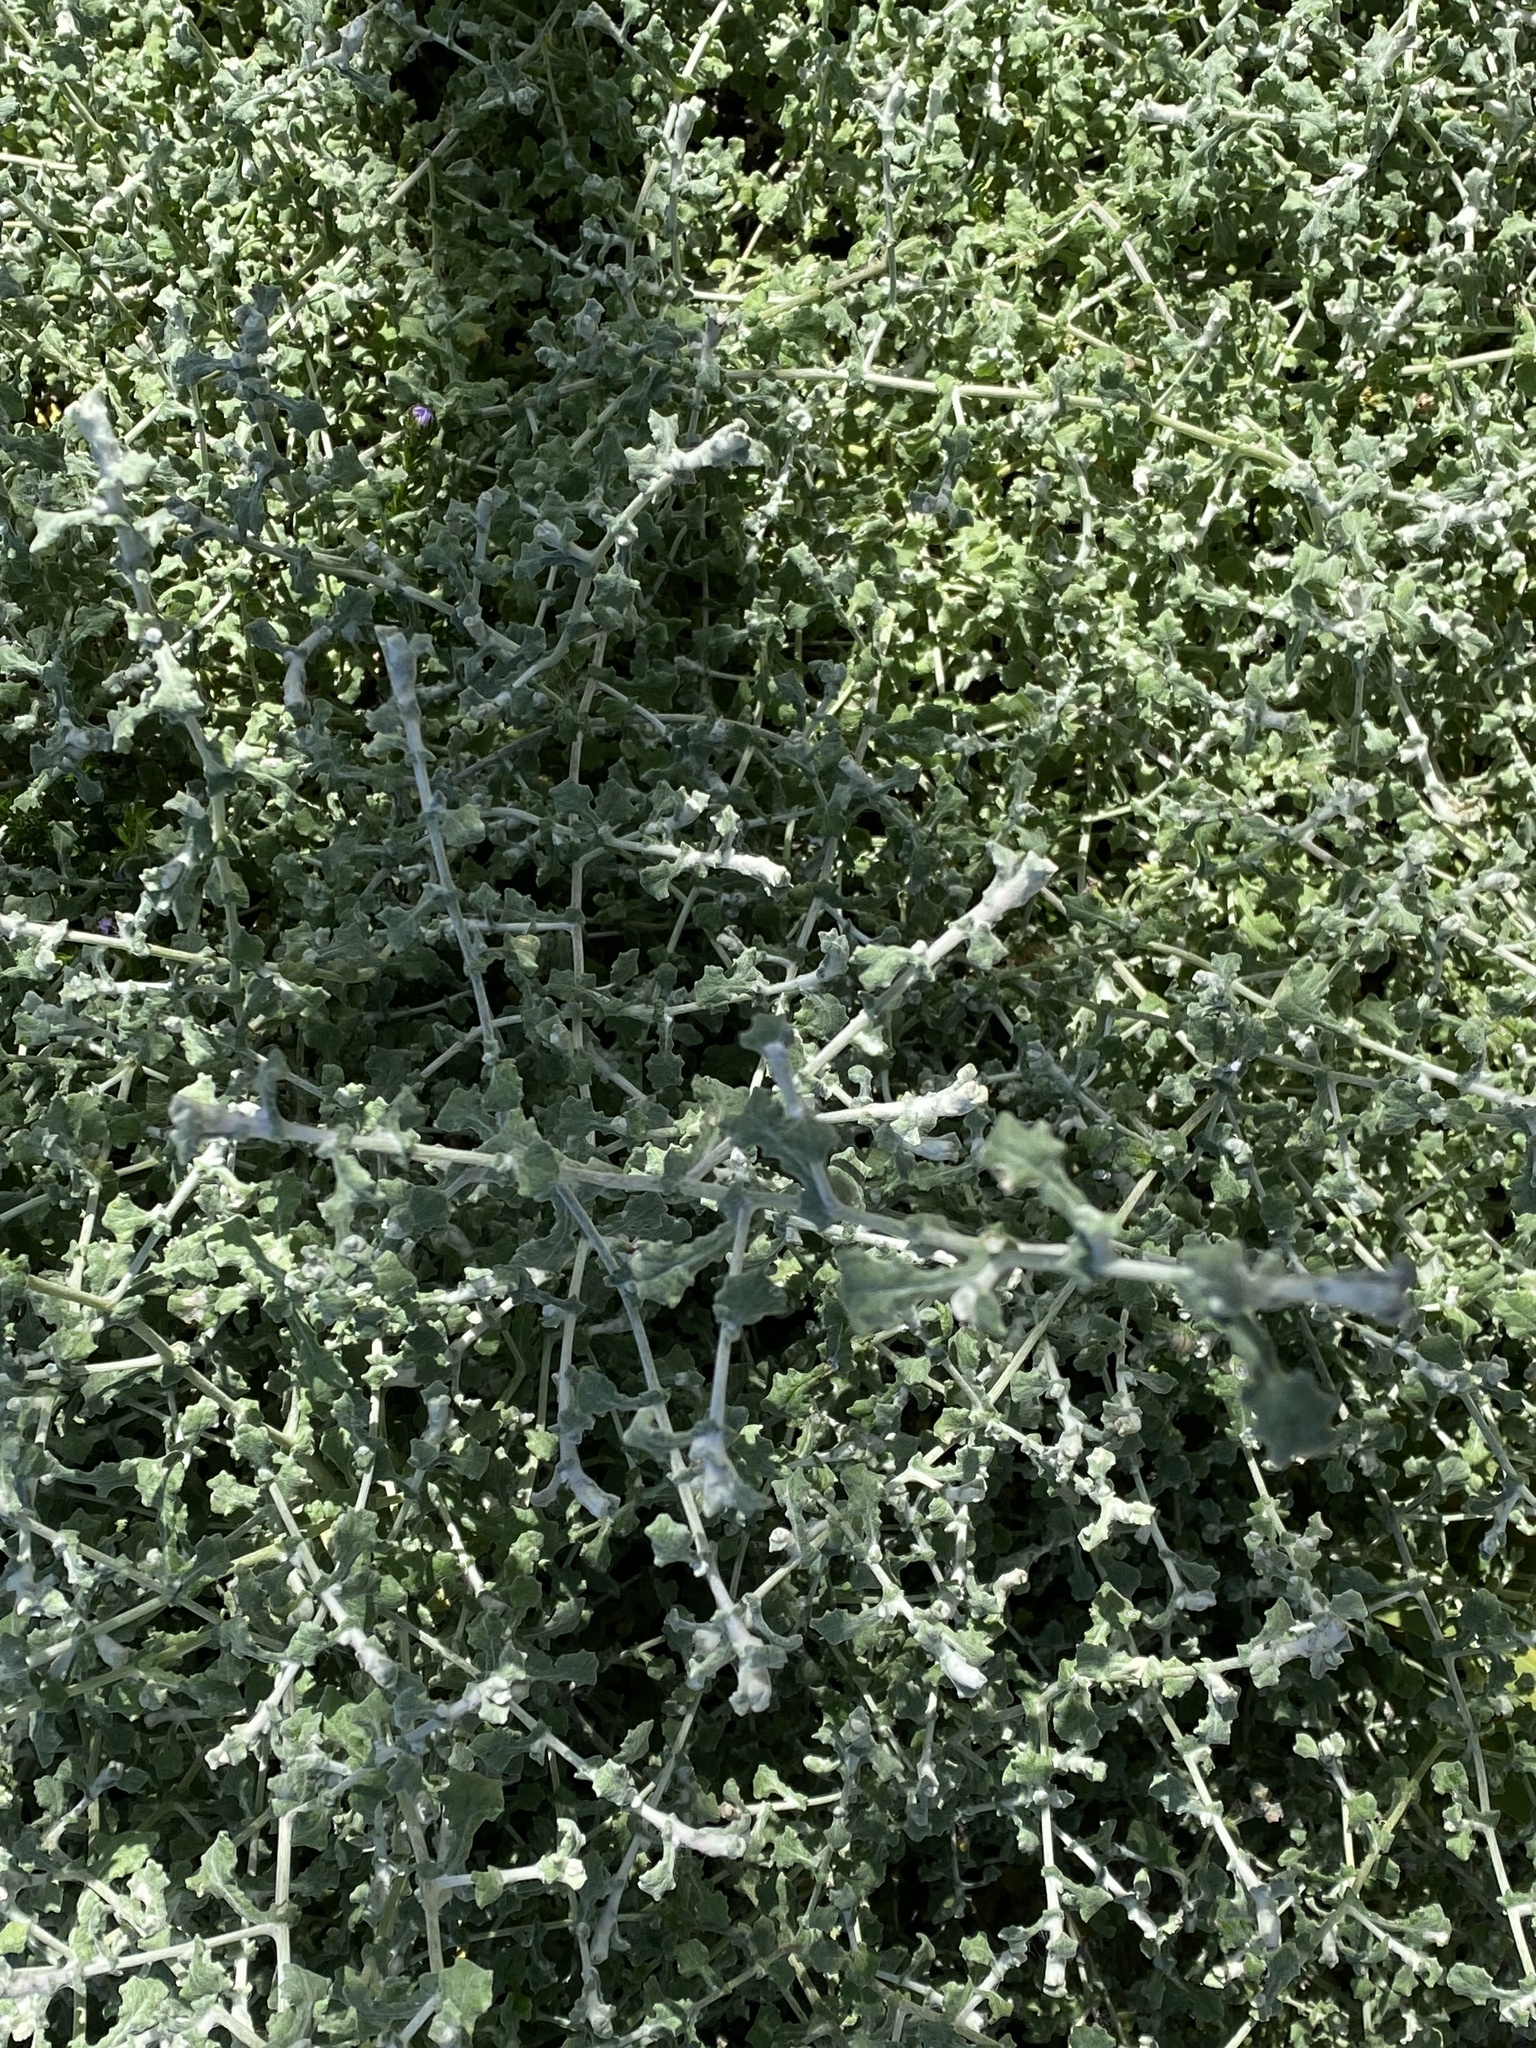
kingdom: Plantae
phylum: Tracheophyta
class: Magnoliopsida
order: Asterales
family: Asteraceae
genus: Helichrysum
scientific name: Helichrysum patulum
